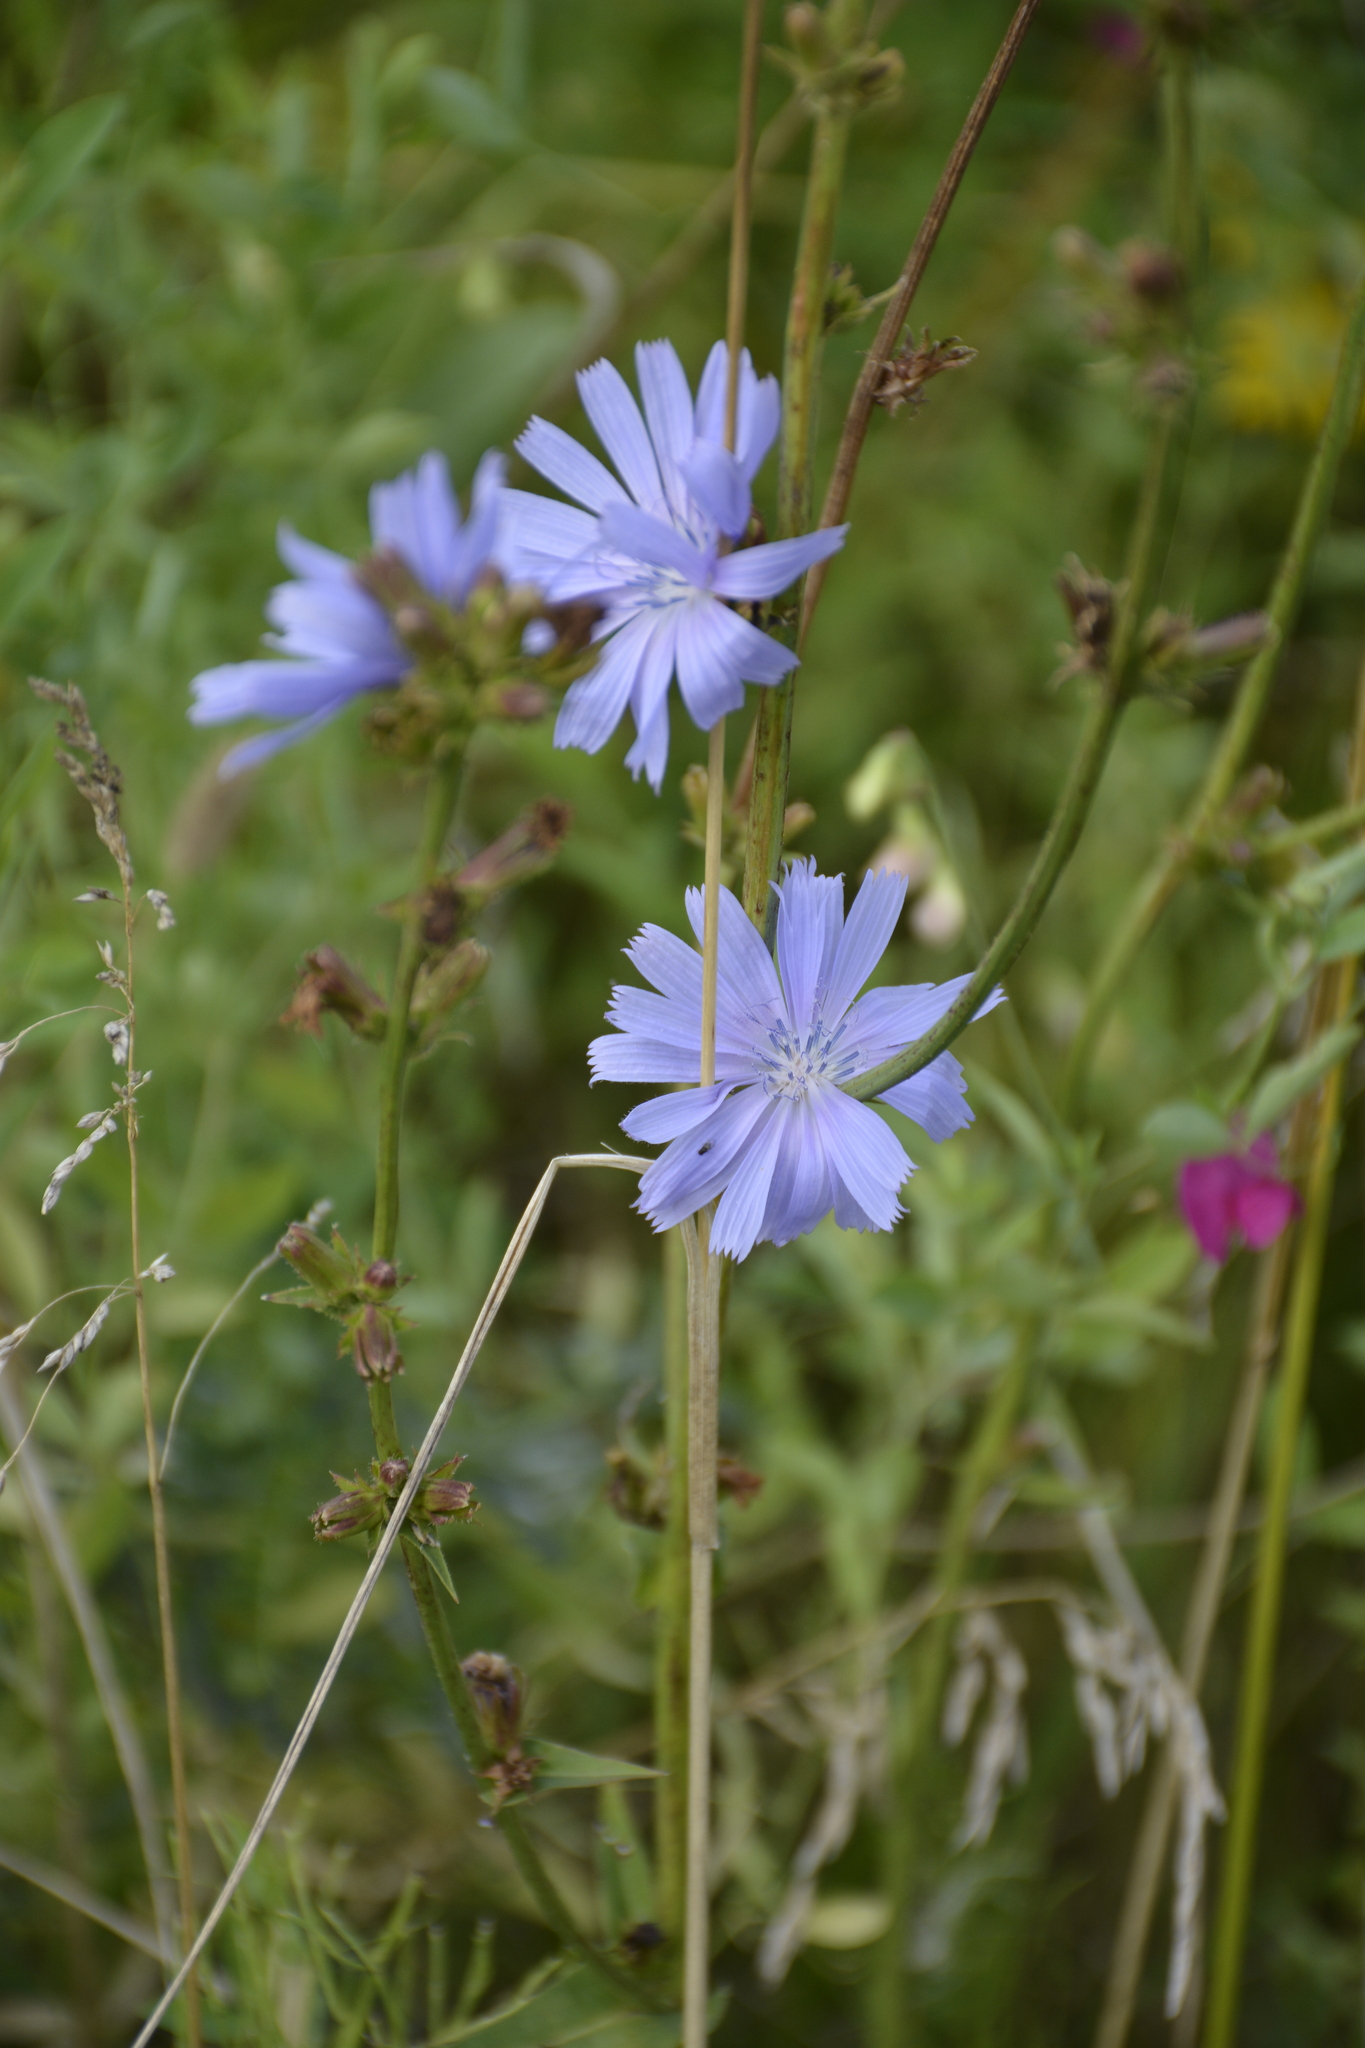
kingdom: Plantae
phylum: Tracheophyta
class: Magnoliopsida
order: Asterales
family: Asteraceae
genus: Cichorium
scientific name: Cichorium intybus
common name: Chicory
